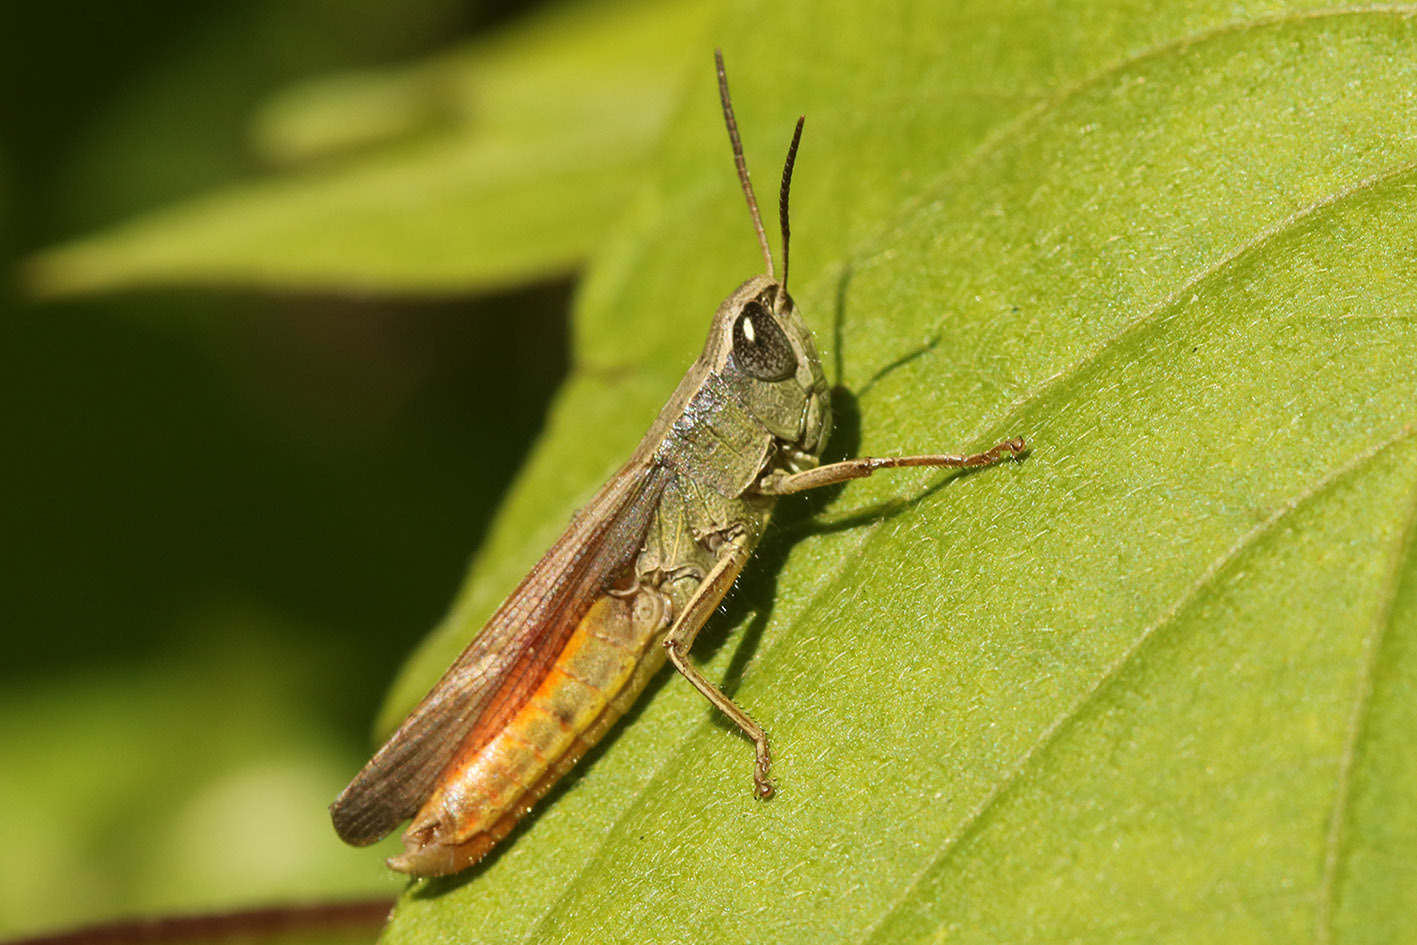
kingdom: Animalia
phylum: Arthropoda
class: Insecta
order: Orthoptera
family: Acrididae
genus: Amblytropidia
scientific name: Amblytropidia australis
